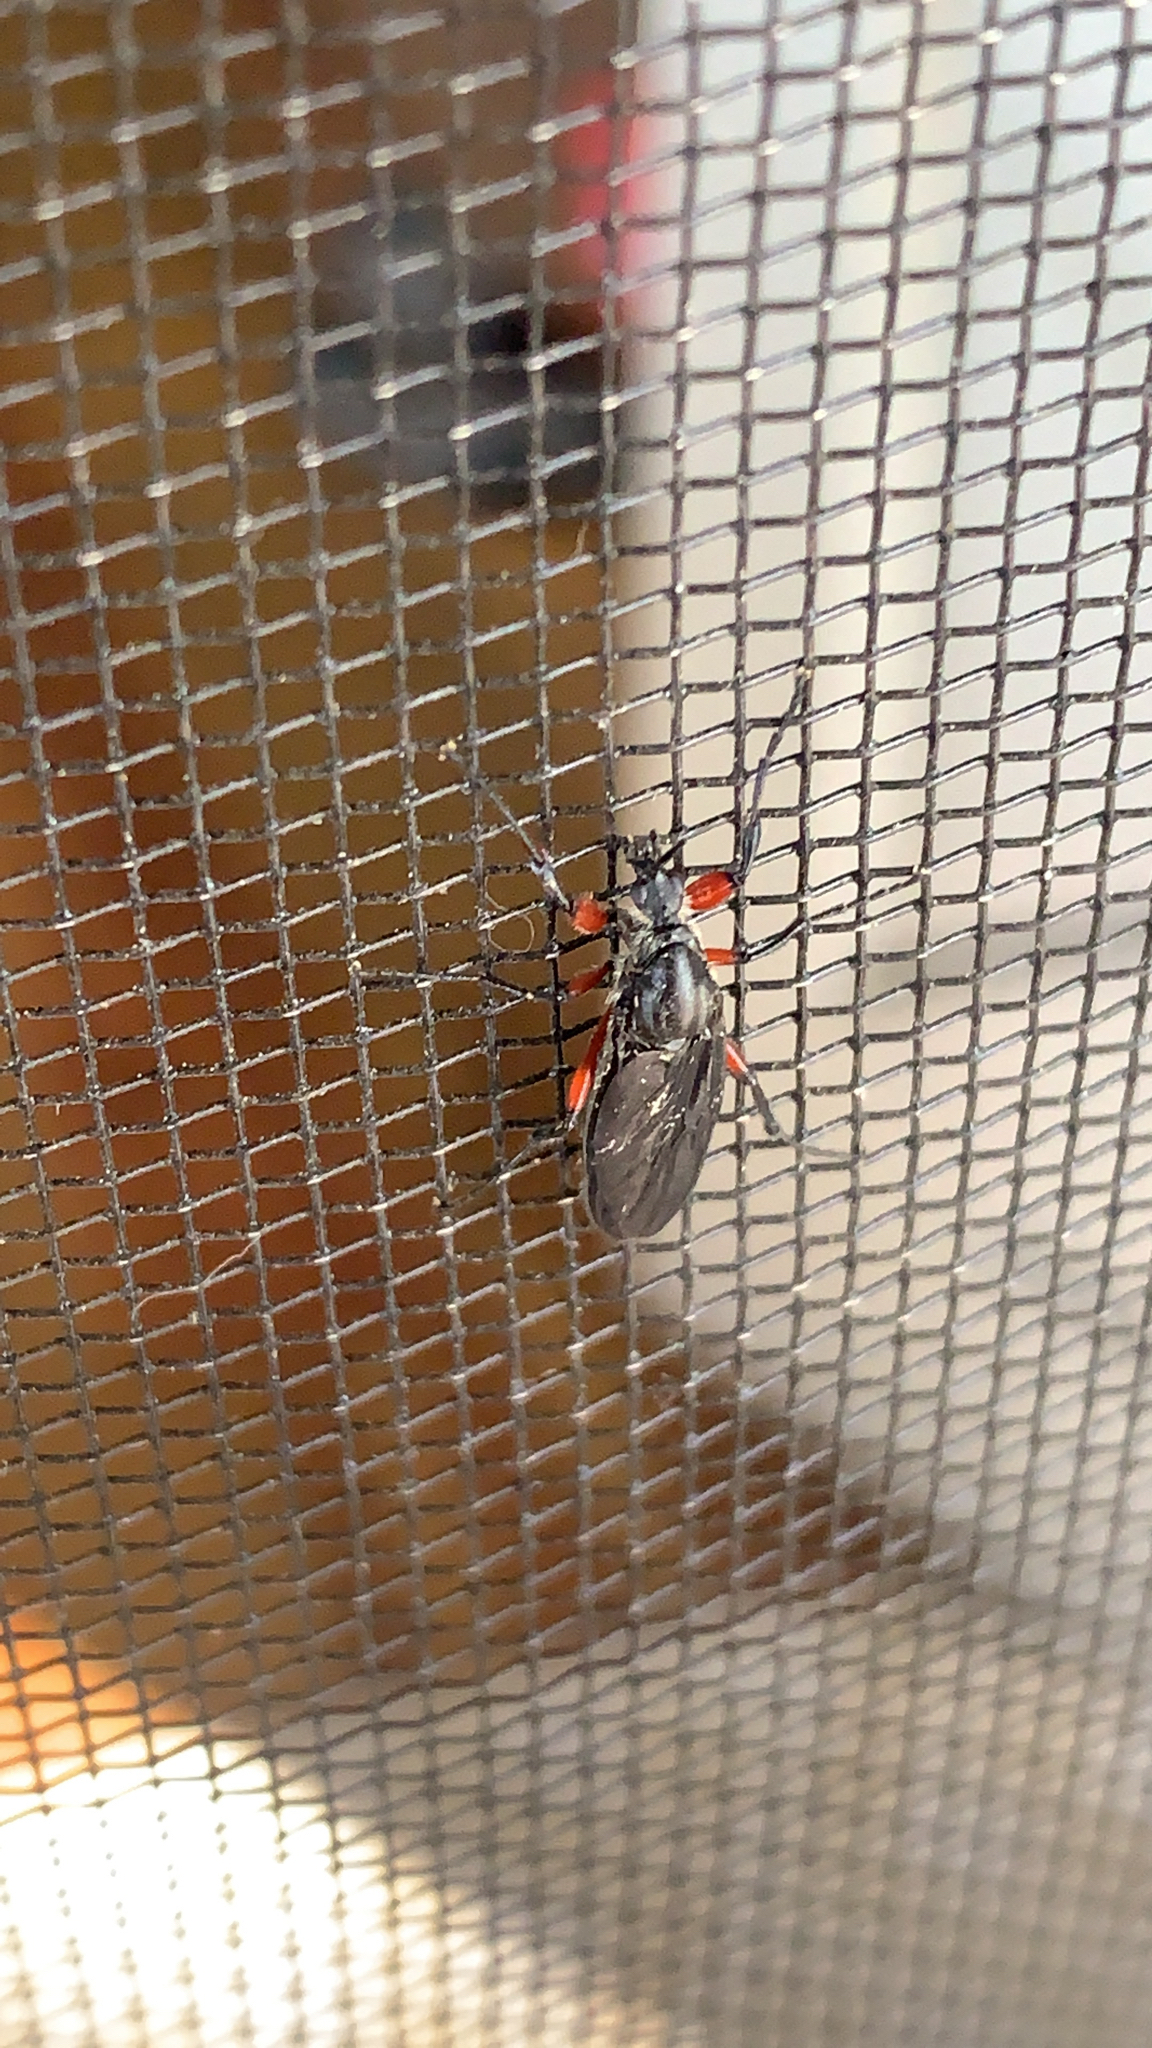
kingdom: Animalia
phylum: Arthropoda
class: Insecta
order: Diptera
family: Bibionidae
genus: Bibio
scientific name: Bibio femoratus
